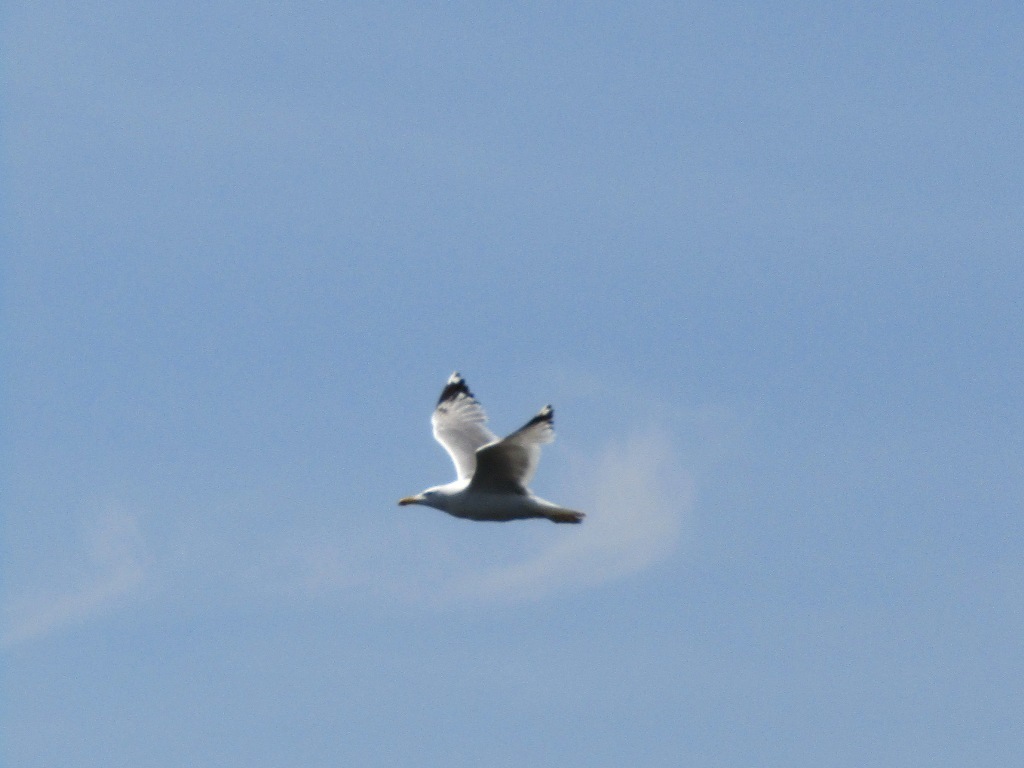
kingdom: Animalia
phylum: Chordata
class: Aves
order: Charadriiformes
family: Laridae
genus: Larus
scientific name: Larus cachinnans
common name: Caspian gull
